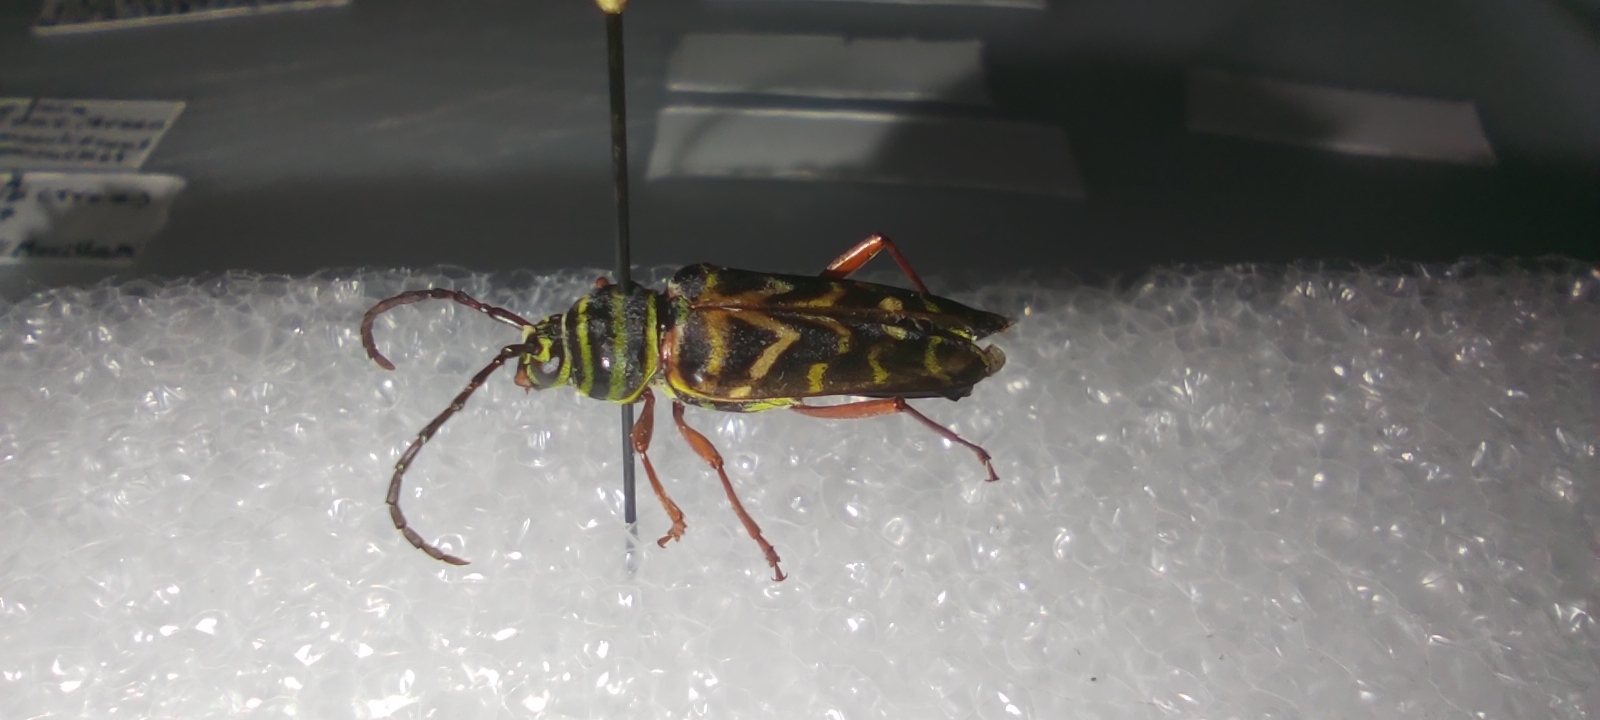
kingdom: Animalia
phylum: Arthropoda
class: Insecta
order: Coleoptera
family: Cerambycidae
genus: Megacyllene
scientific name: Megacyllene caryae
